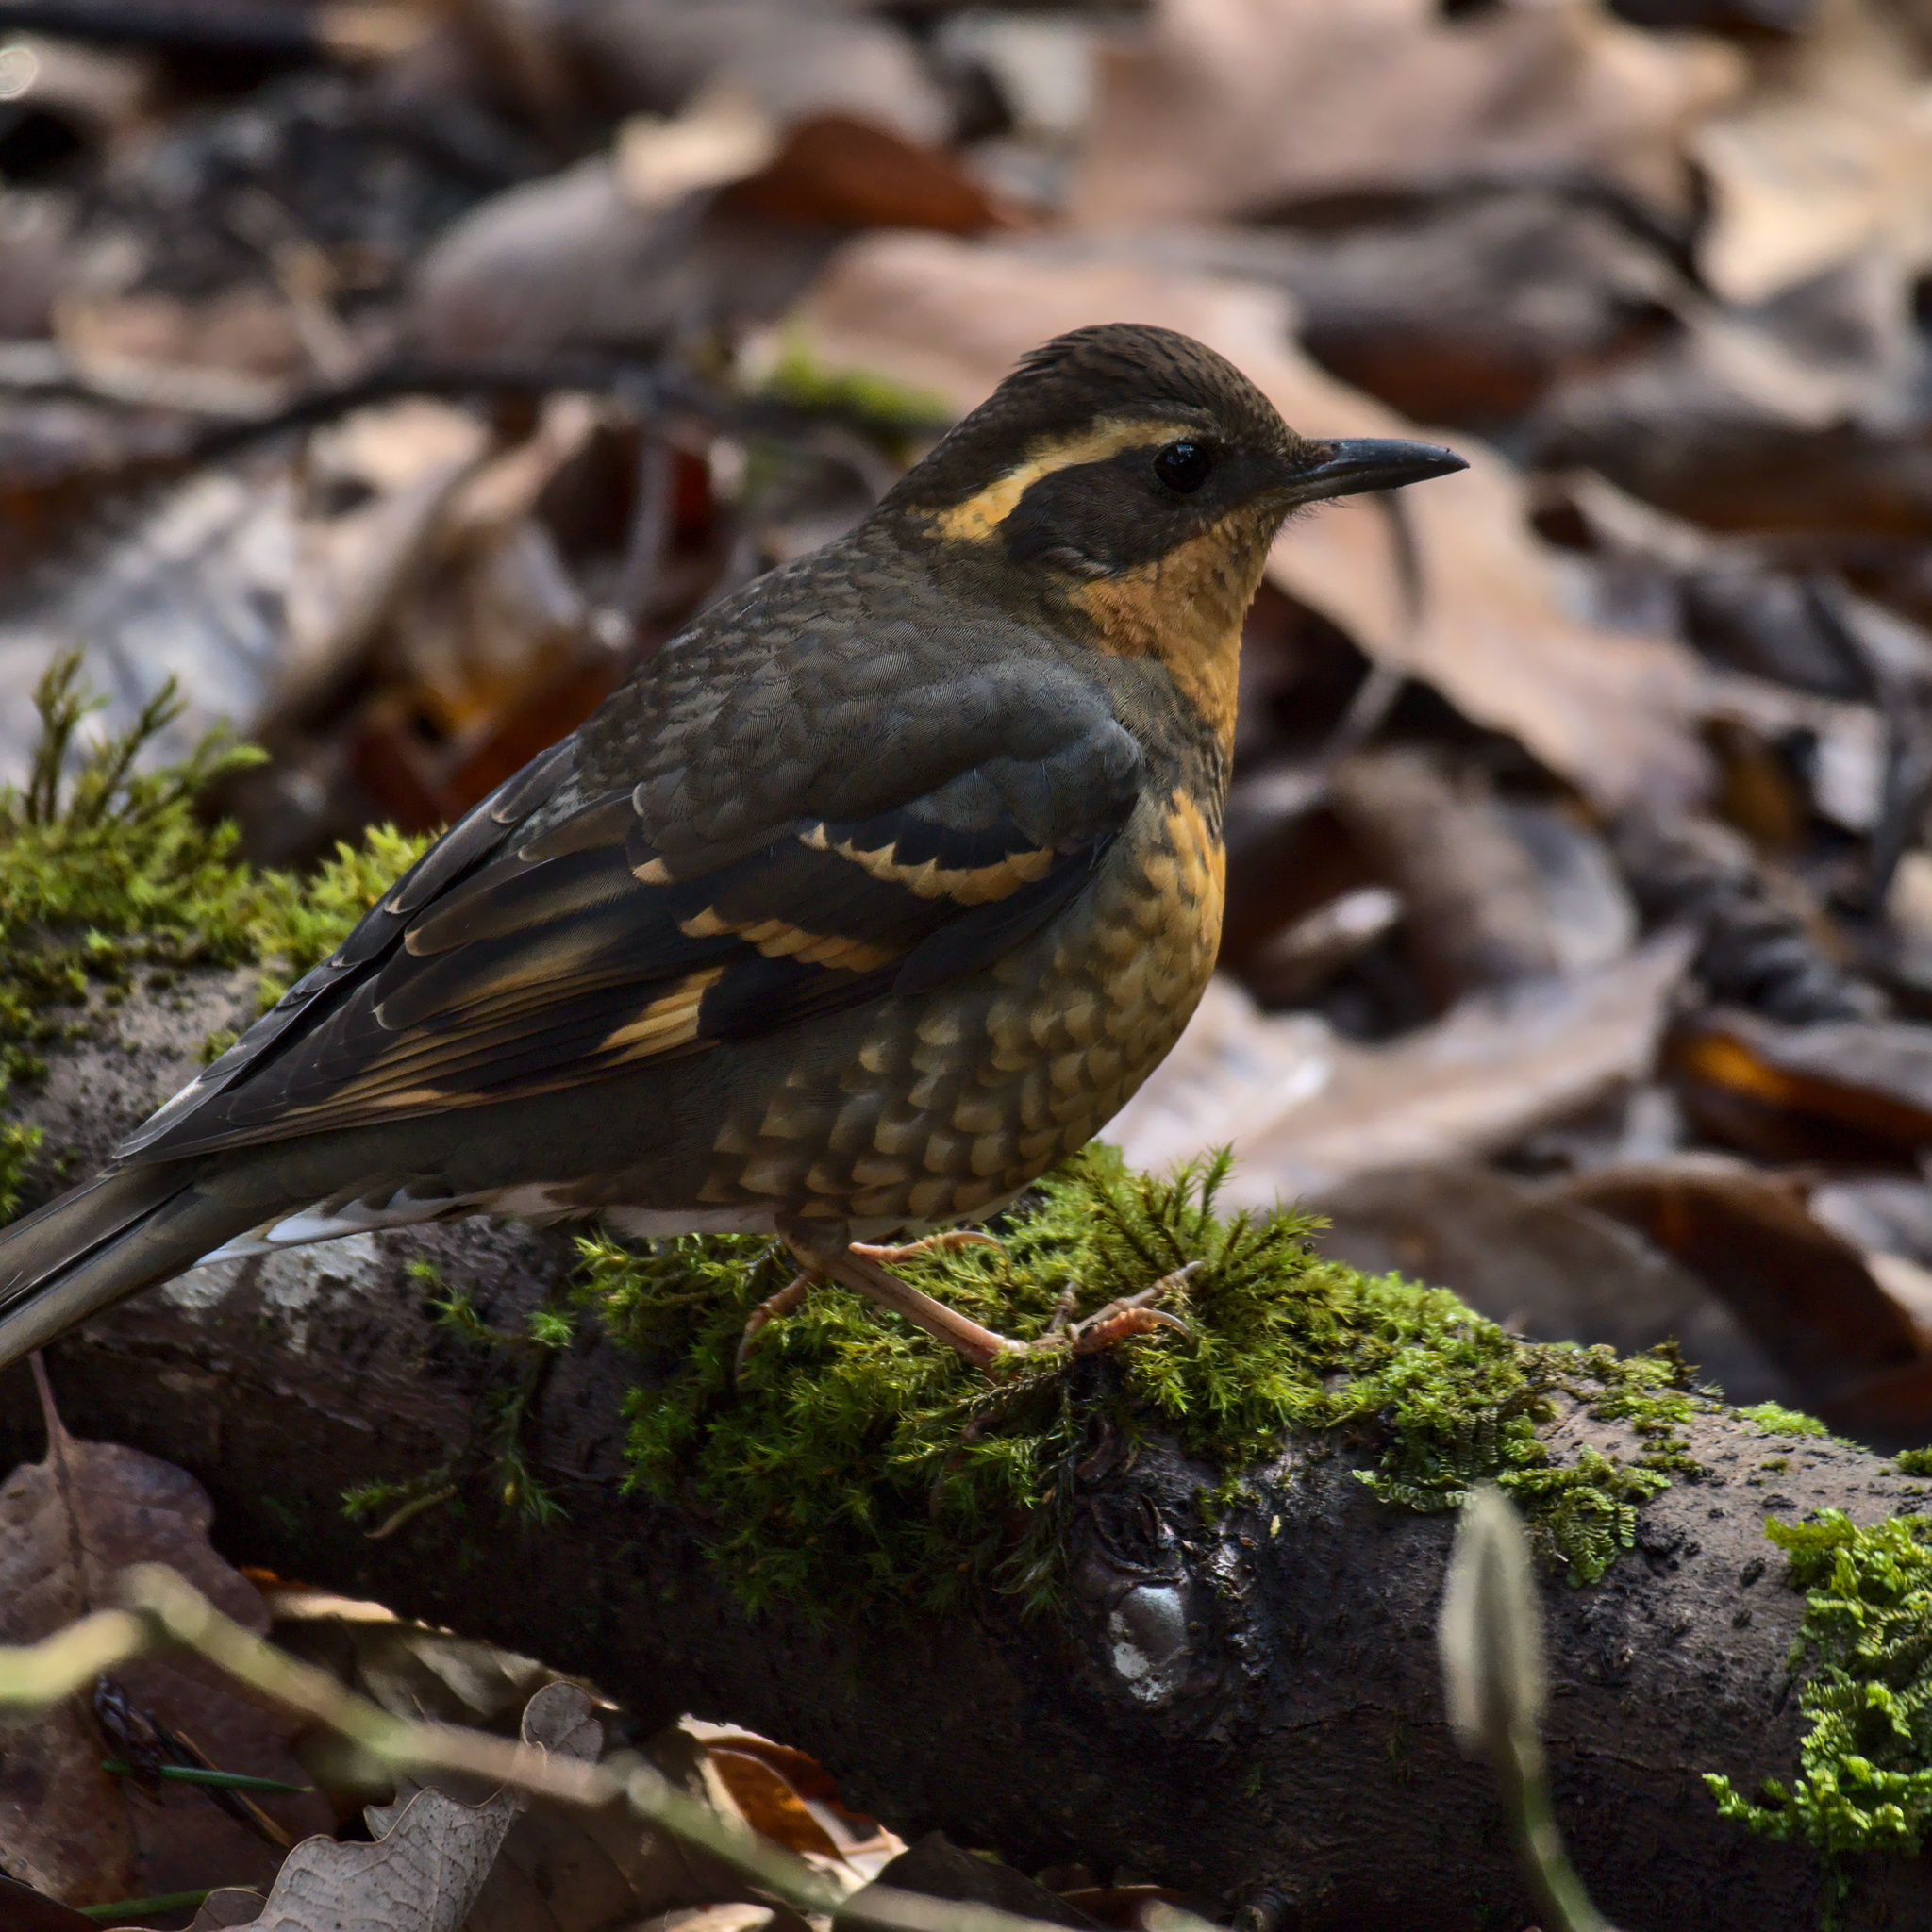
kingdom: Animalia
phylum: Chordata
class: Aves
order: Passeriformes
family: Turdidae
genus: Ixoreus
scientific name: Ixoreus naevius
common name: Varied thrush
